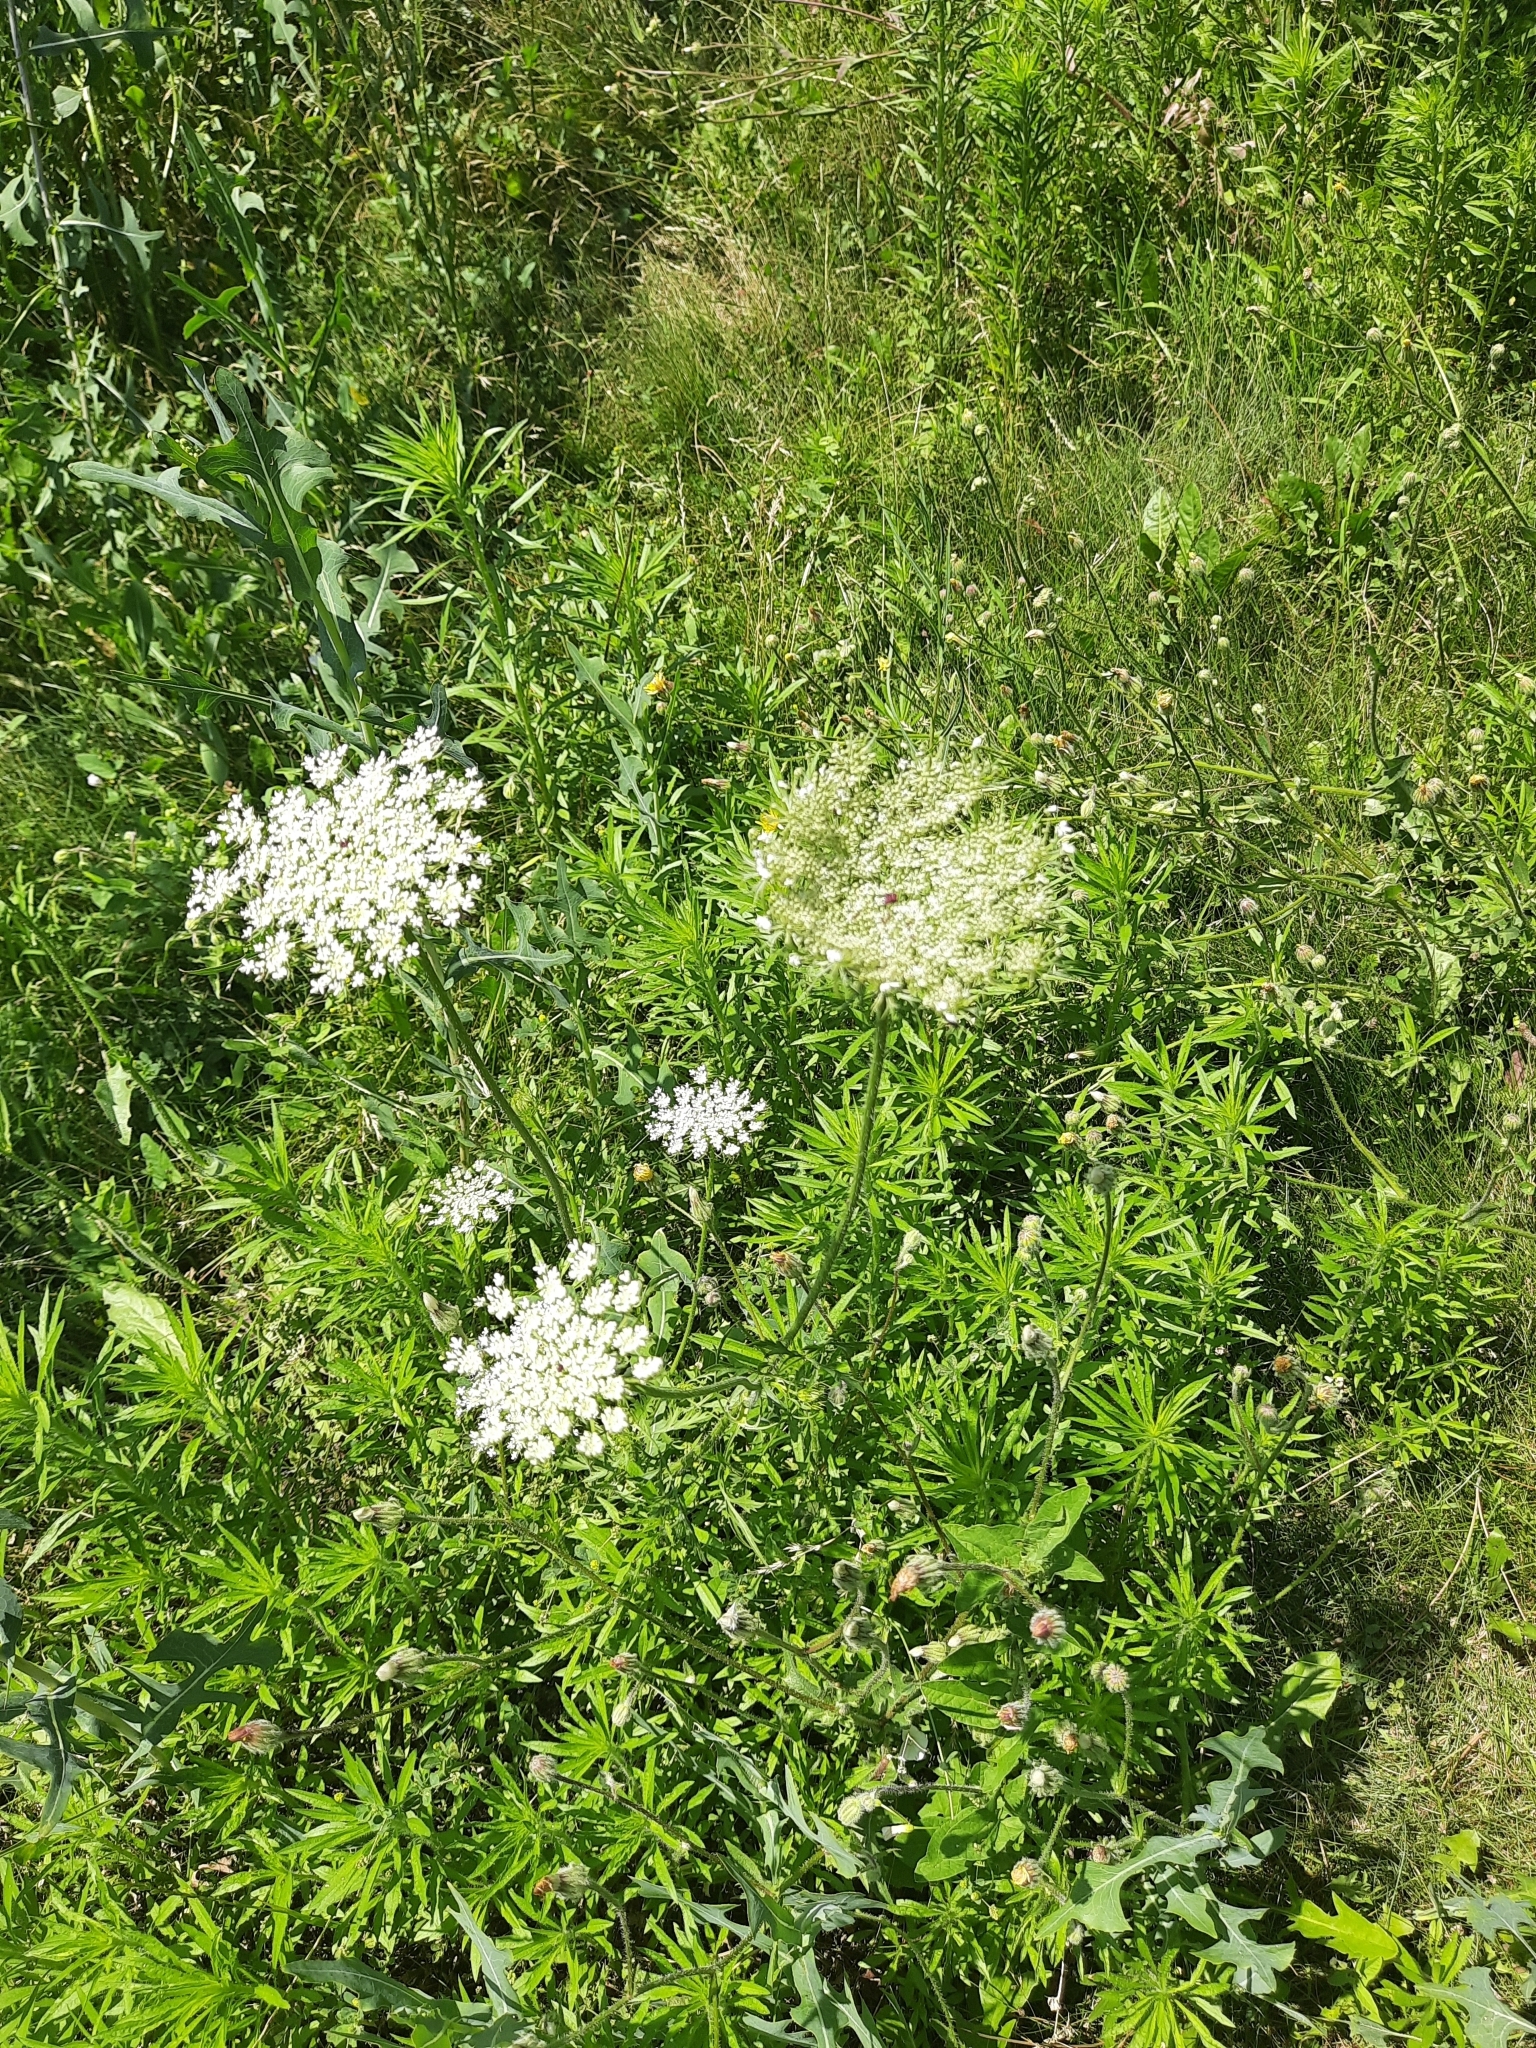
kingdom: Plantae
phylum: Tracheophyta
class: Magnoliopsida
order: Apiales
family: Apiaceae
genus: Daucus
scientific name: Daucus carota
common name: Wild carrot
